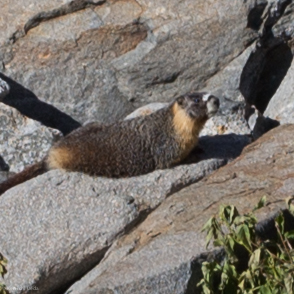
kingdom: Animalia
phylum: Chordata
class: Mammalia
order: Rodentia
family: Sciuridae
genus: Marmota
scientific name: Marmota flaviventris
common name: Yellow-bellied marmot
